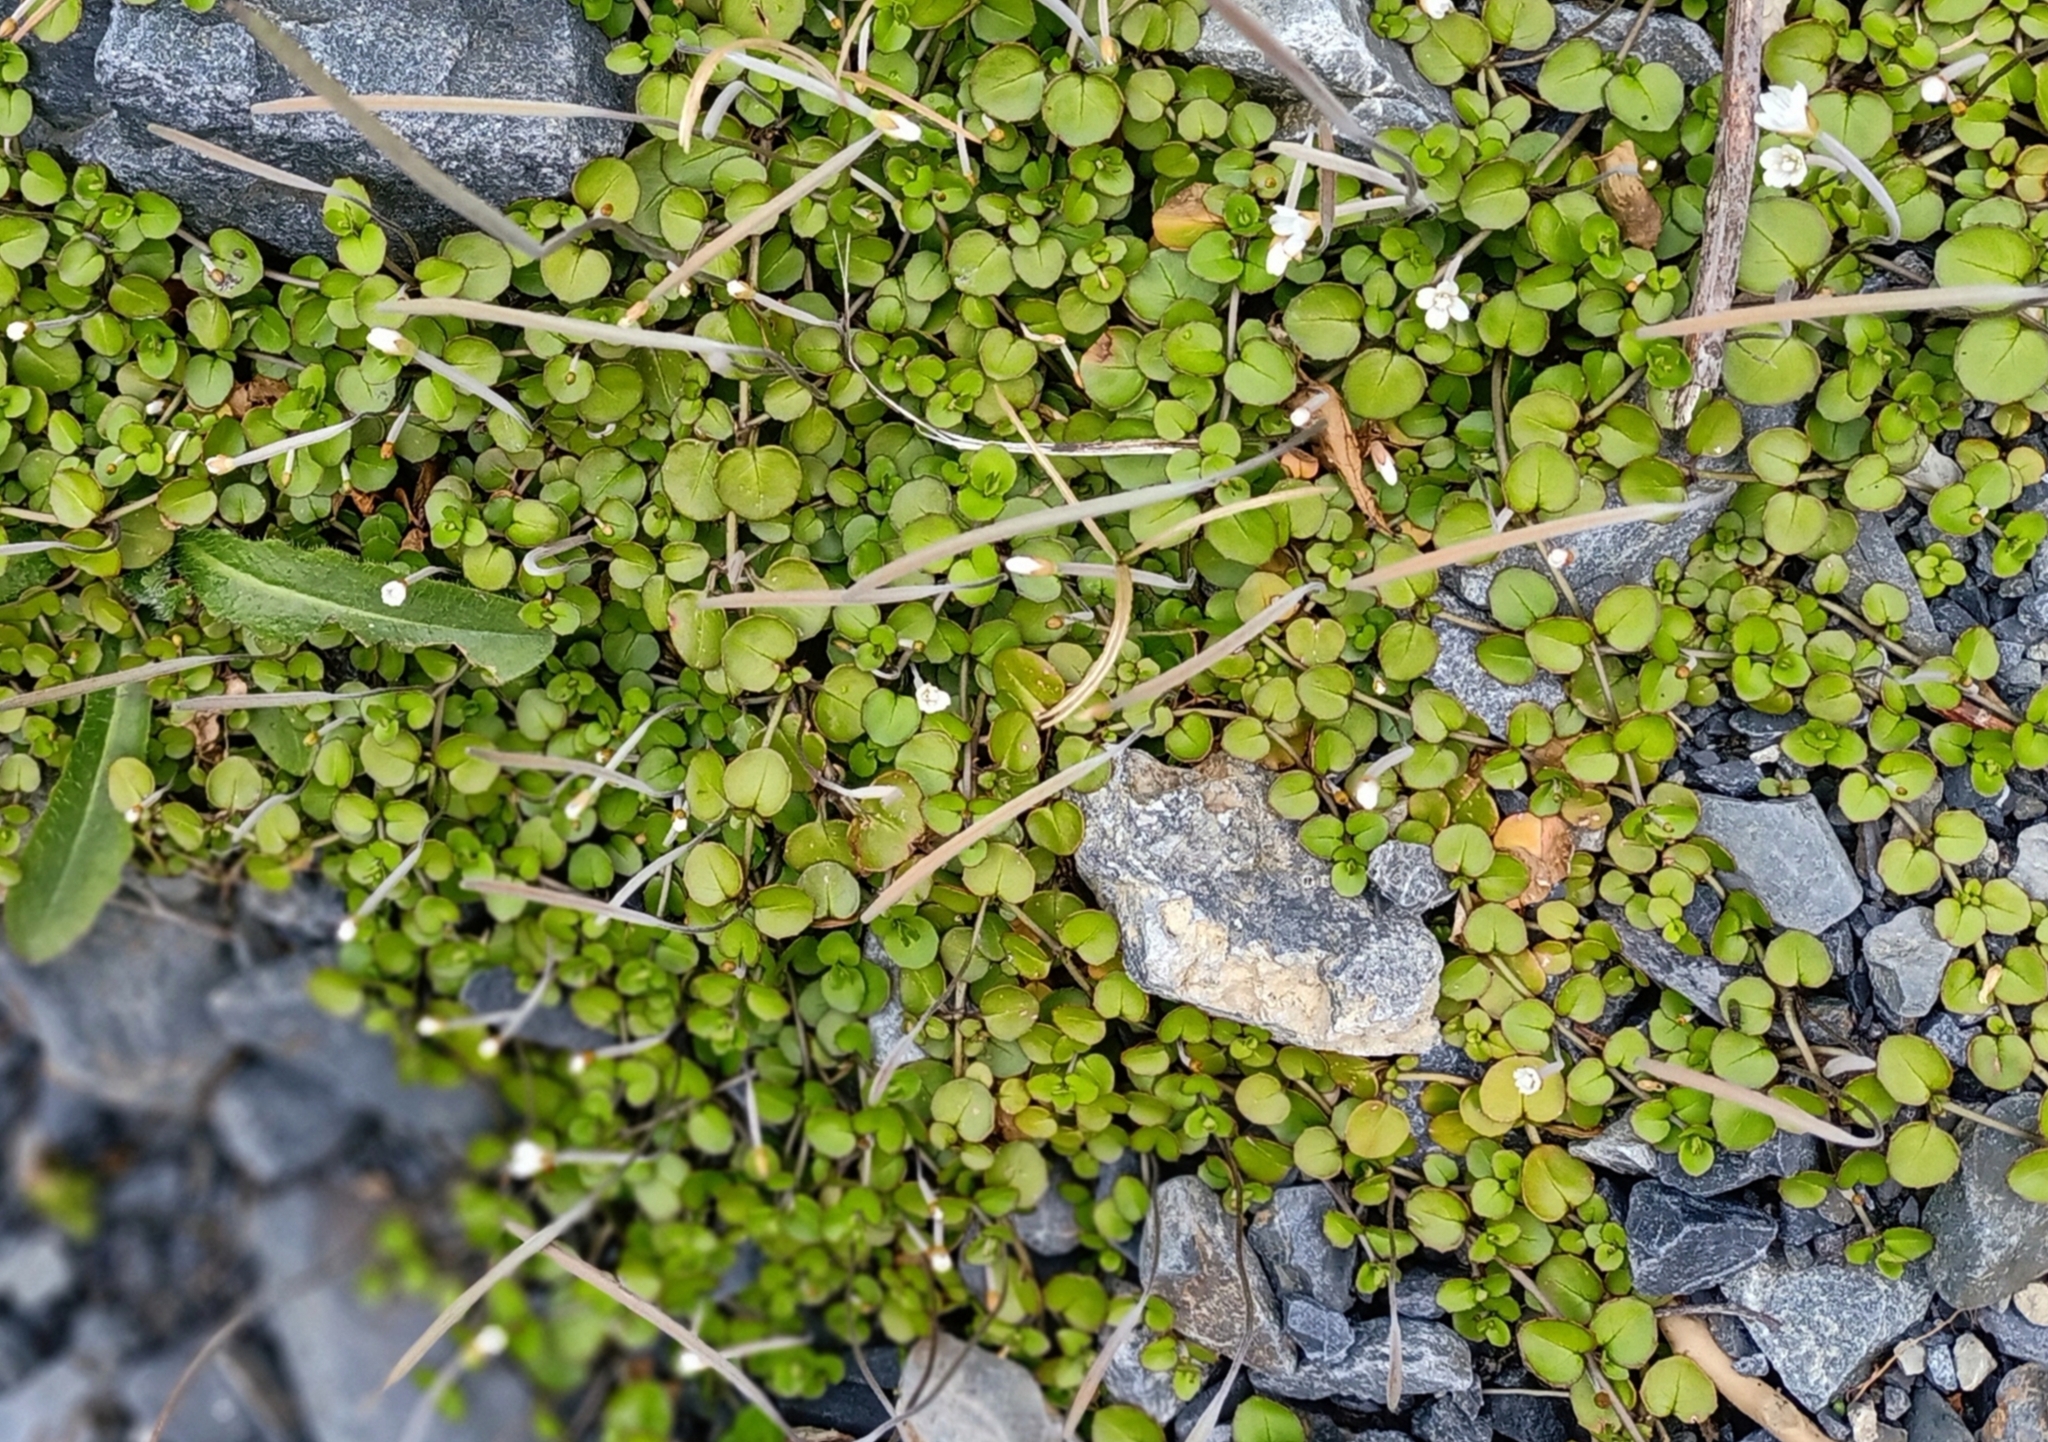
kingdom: Plantae
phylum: Tracheophyta
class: Magnoliopsida
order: Myrtales
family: Onagraceae
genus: Epilobium
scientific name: Epilobium nummularifolium
